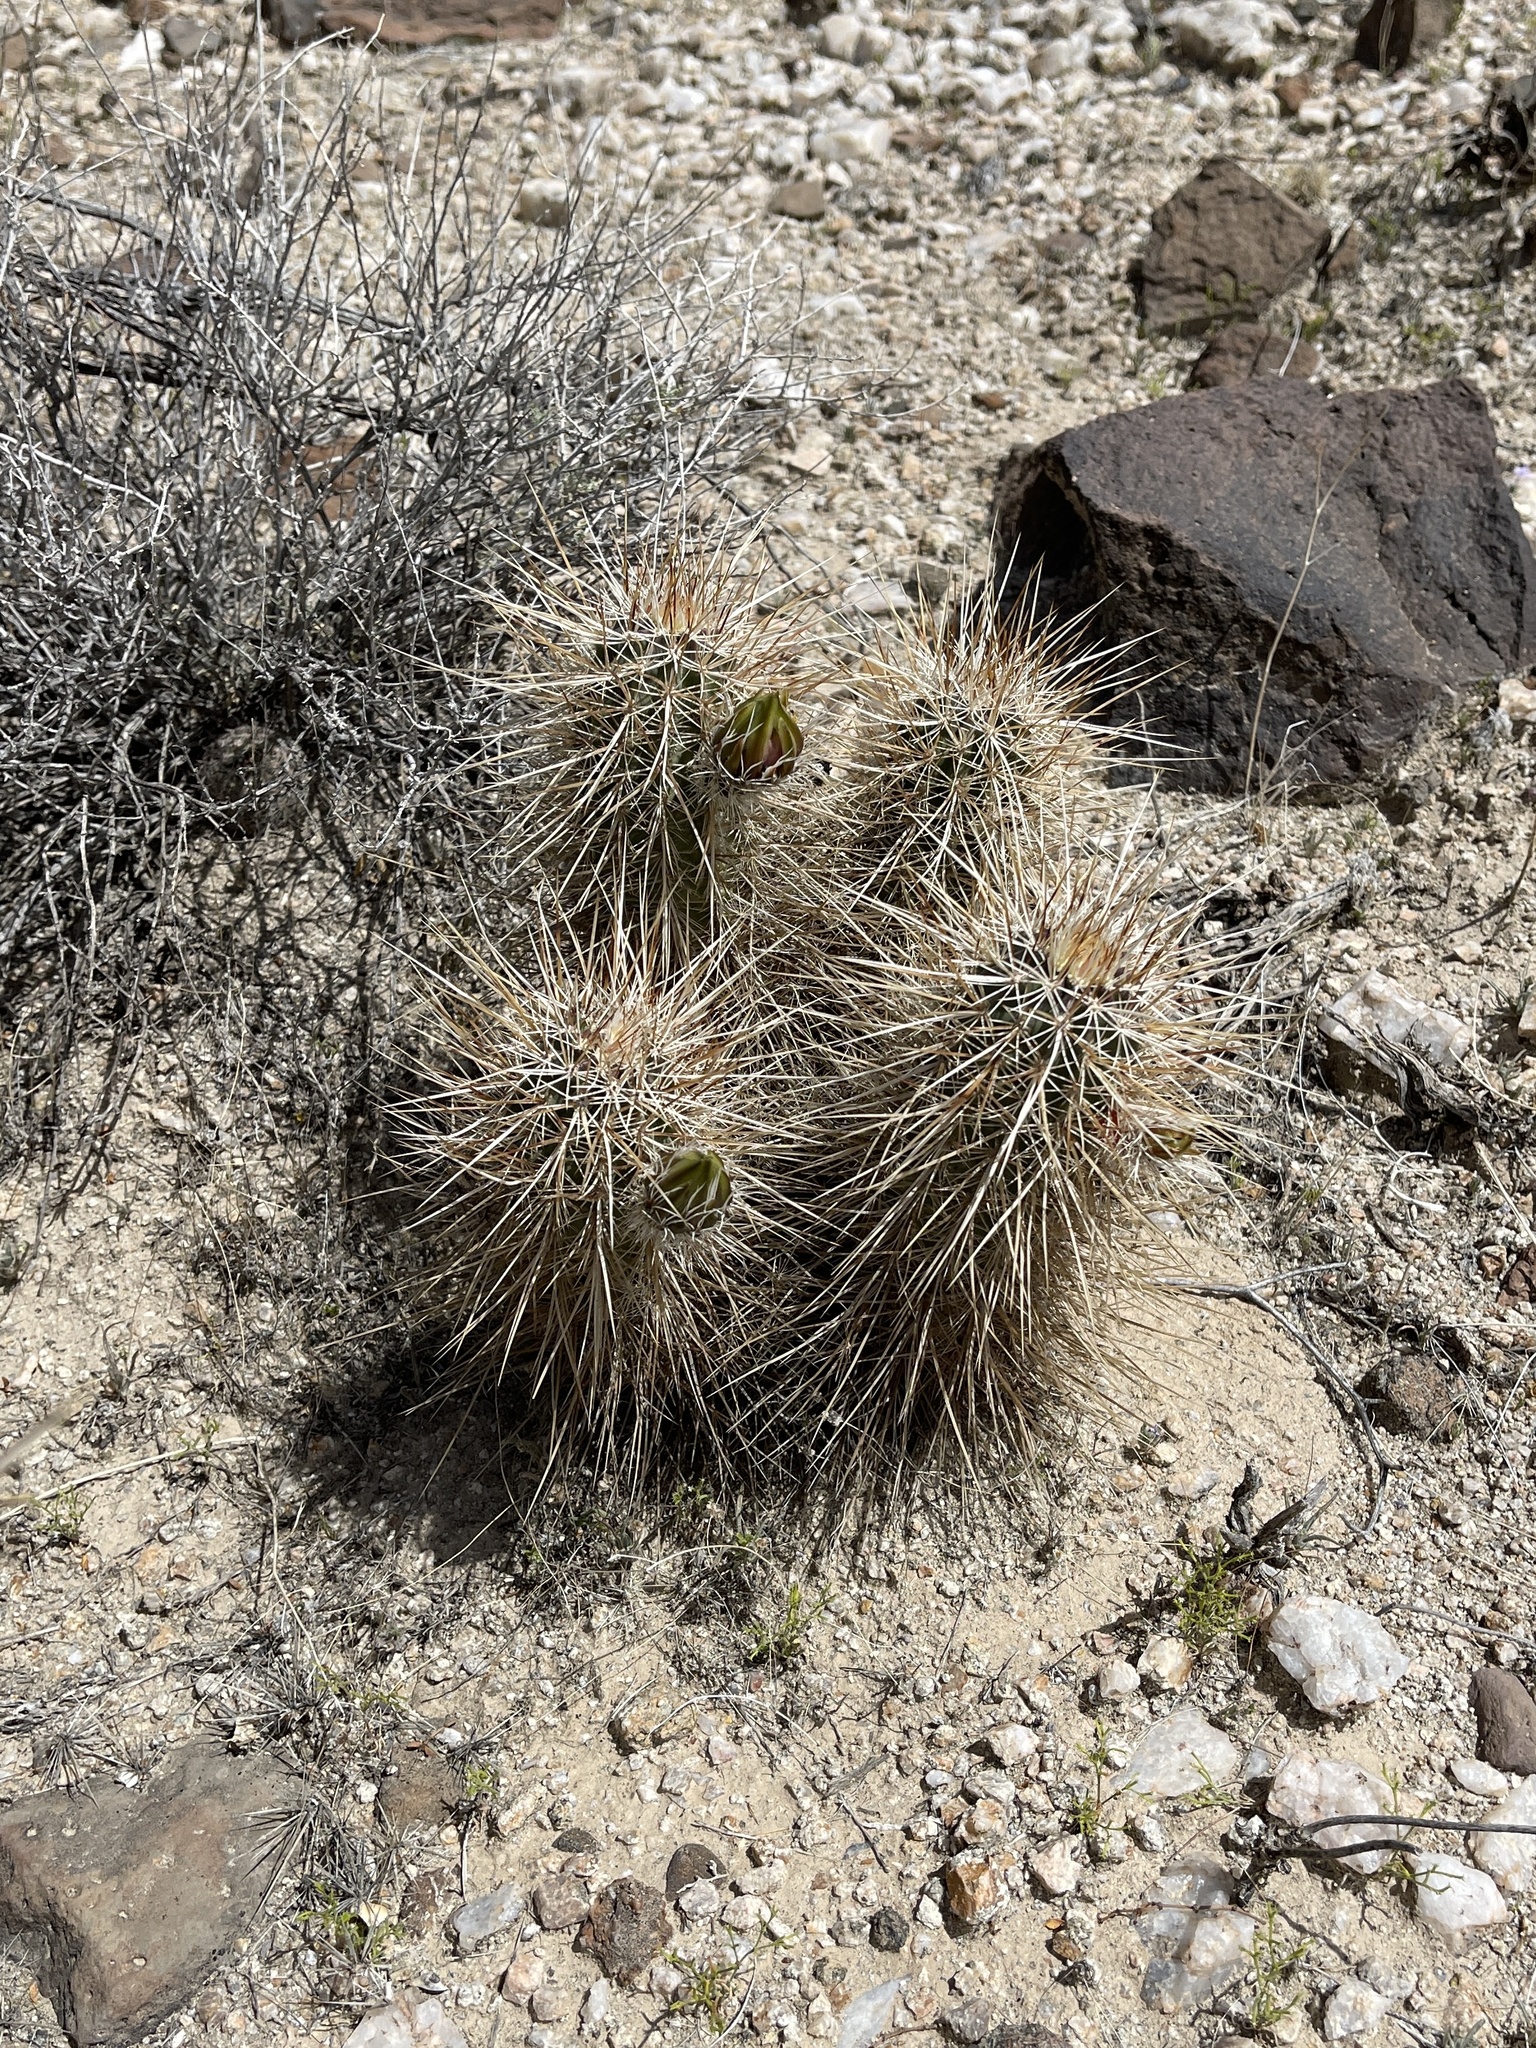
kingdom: Plantae
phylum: Tracheophyta
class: Magnoliopsida
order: Caryophyllales
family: Cactaceae
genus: Echinocereus
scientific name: Echinocereus engelmannii
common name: Engelmann's hedgehog cactus
